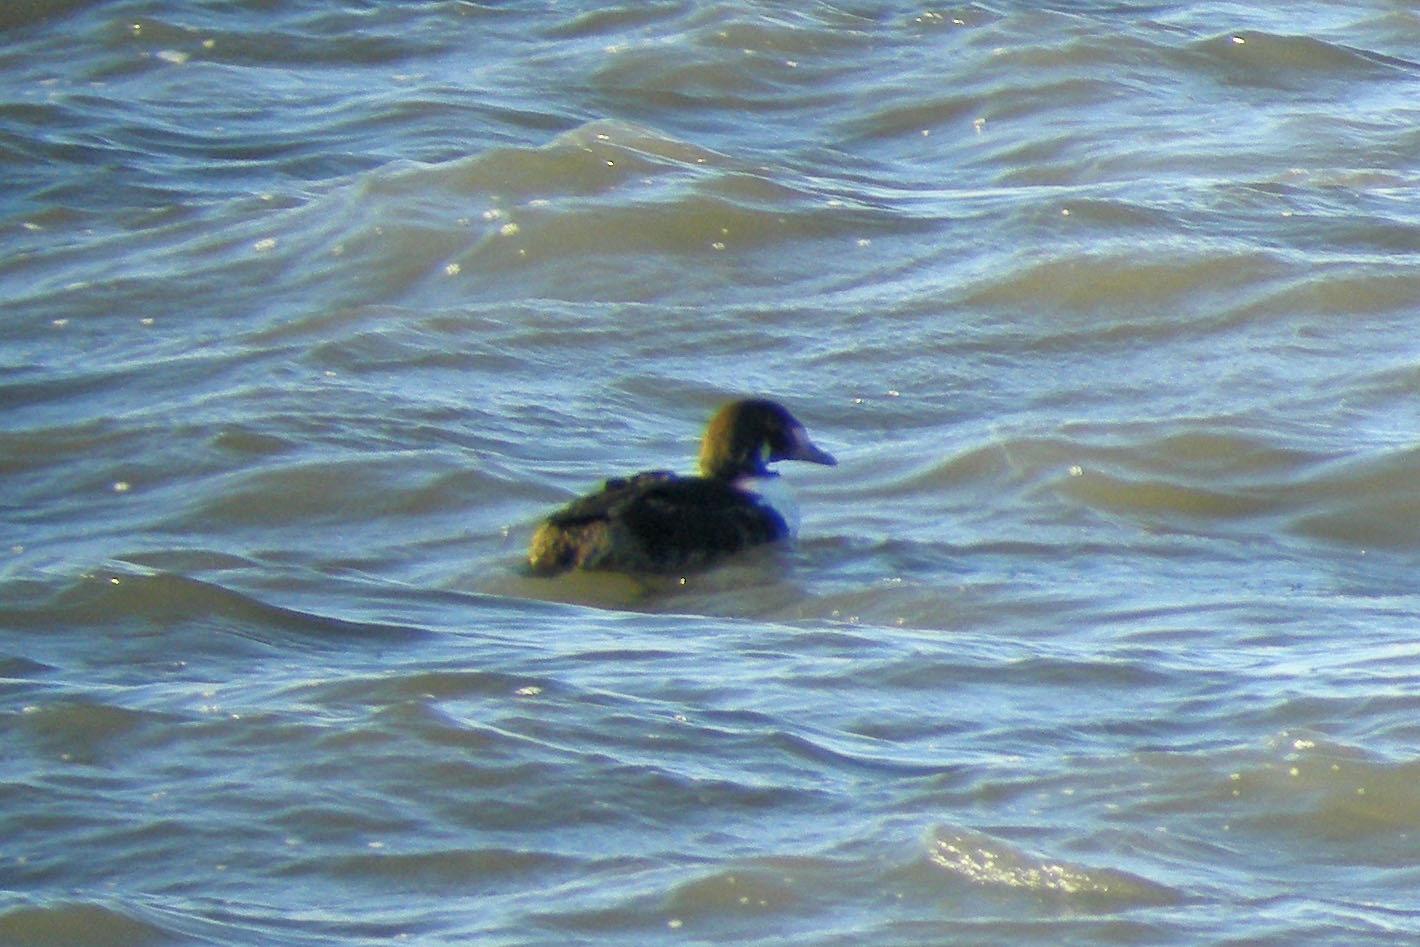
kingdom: Animalia
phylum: Chordata
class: Aves
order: Anseriformes
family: Anatidae
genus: Somateria
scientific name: Somateria spectabilis
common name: King eider
